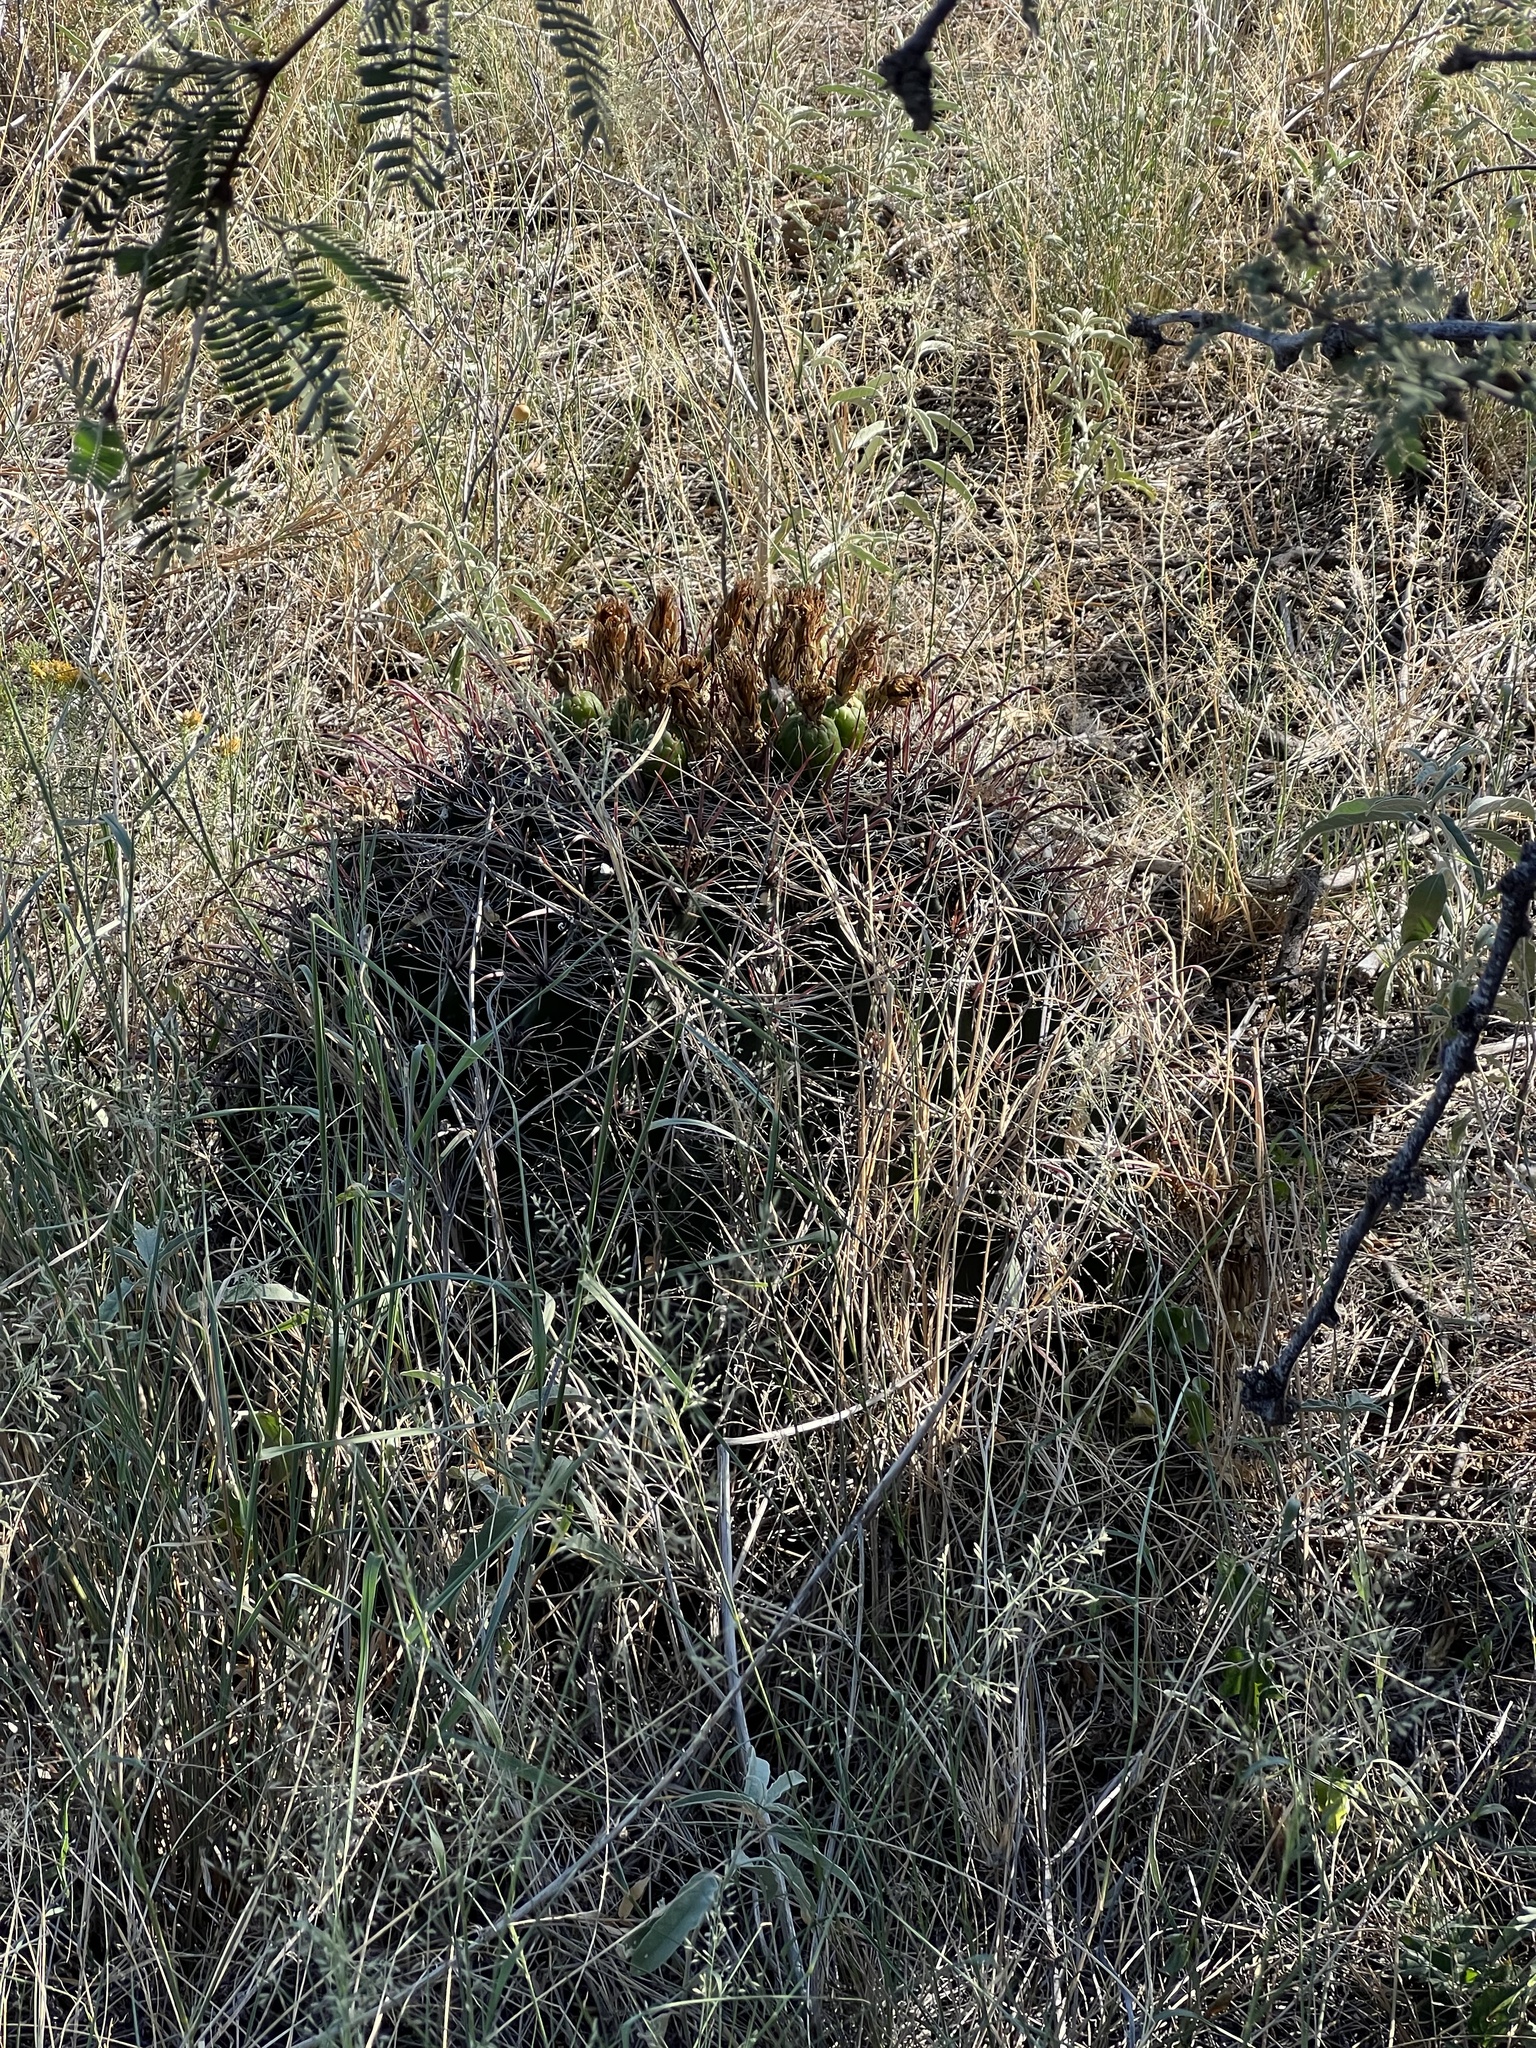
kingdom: Plantae
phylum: Tracheophyta
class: Magnoliopsida
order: Caryophyllales
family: Cactaceae
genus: Ferocactus
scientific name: Ferocactus wislizeni
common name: Candy barrel cactus
